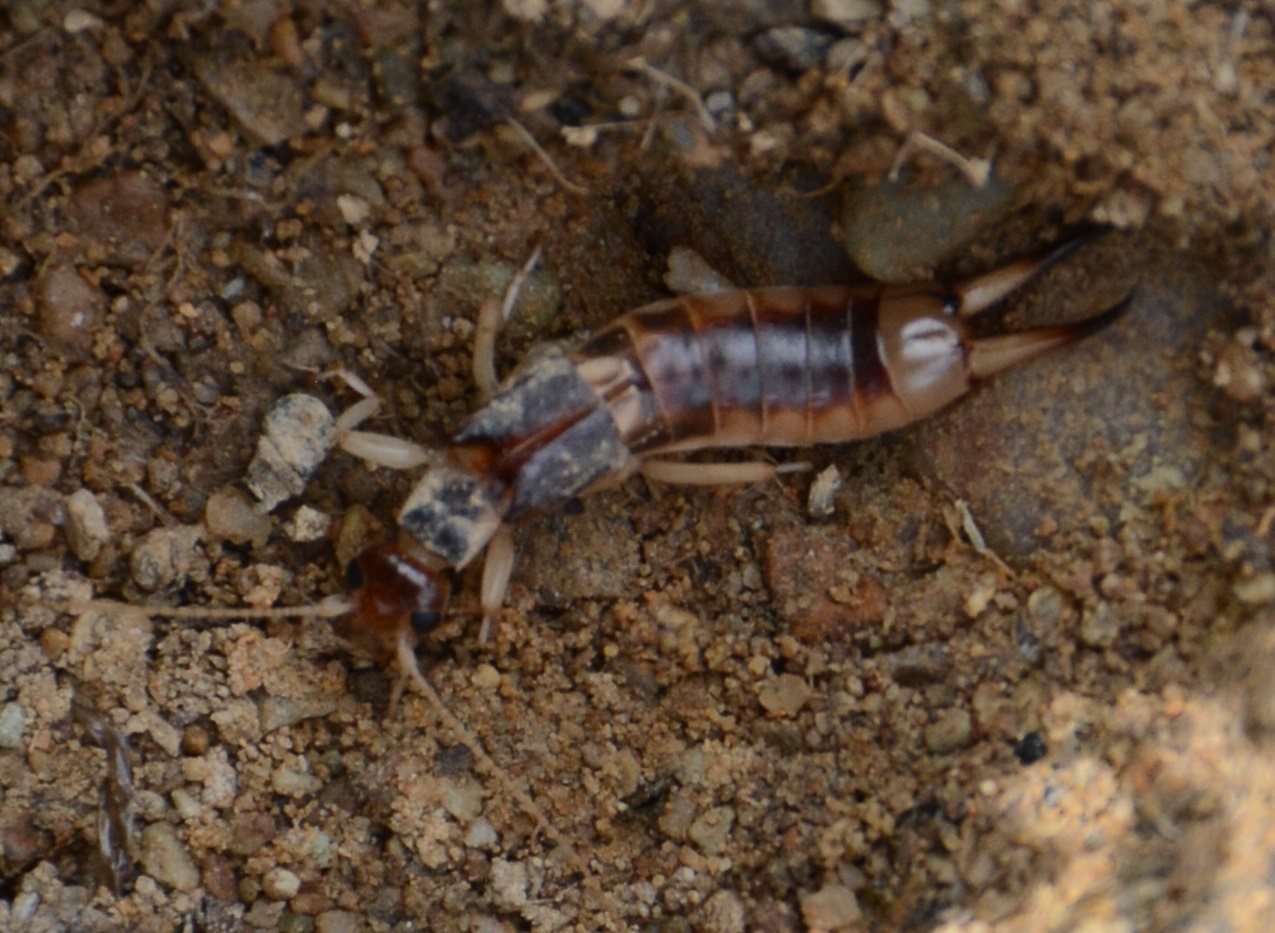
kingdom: Animalia
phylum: Arthropoda
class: Insecta
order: Dermaptera
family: Labiduridae
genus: Labidura
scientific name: Labidura riparia
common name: Striped earwig
